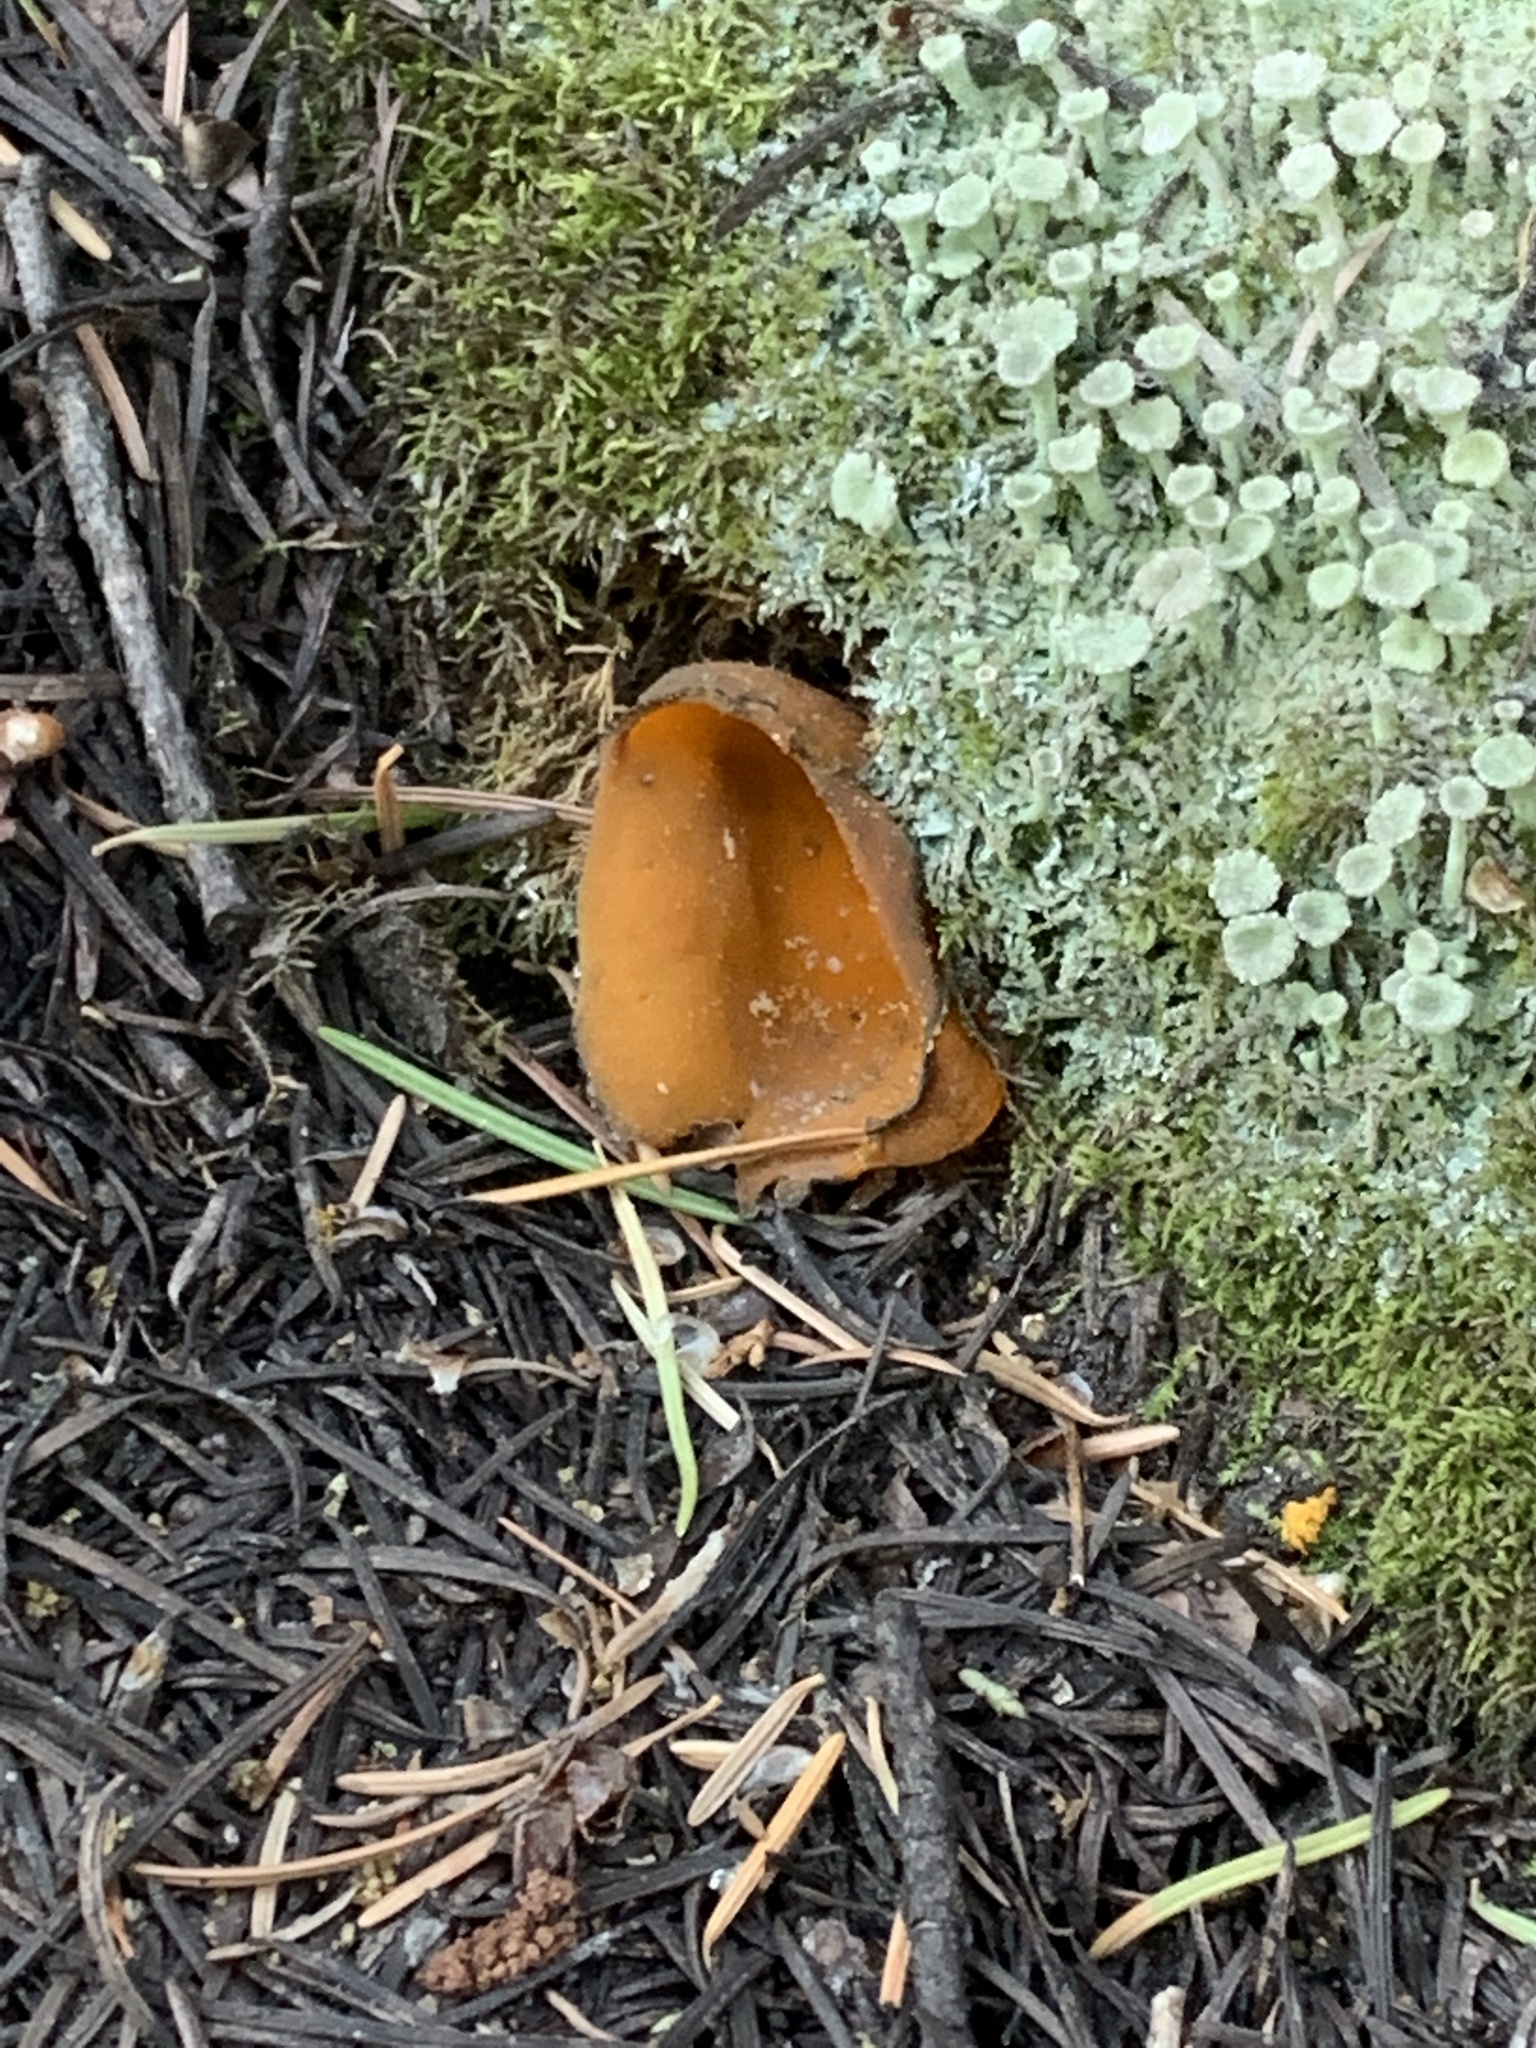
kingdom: Fungi
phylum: Ascomycota
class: Pezizomycetes
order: Pezizales
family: Caloscyphaceae
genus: Caloscypha
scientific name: Caloscypha fulgens
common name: Golden cup
